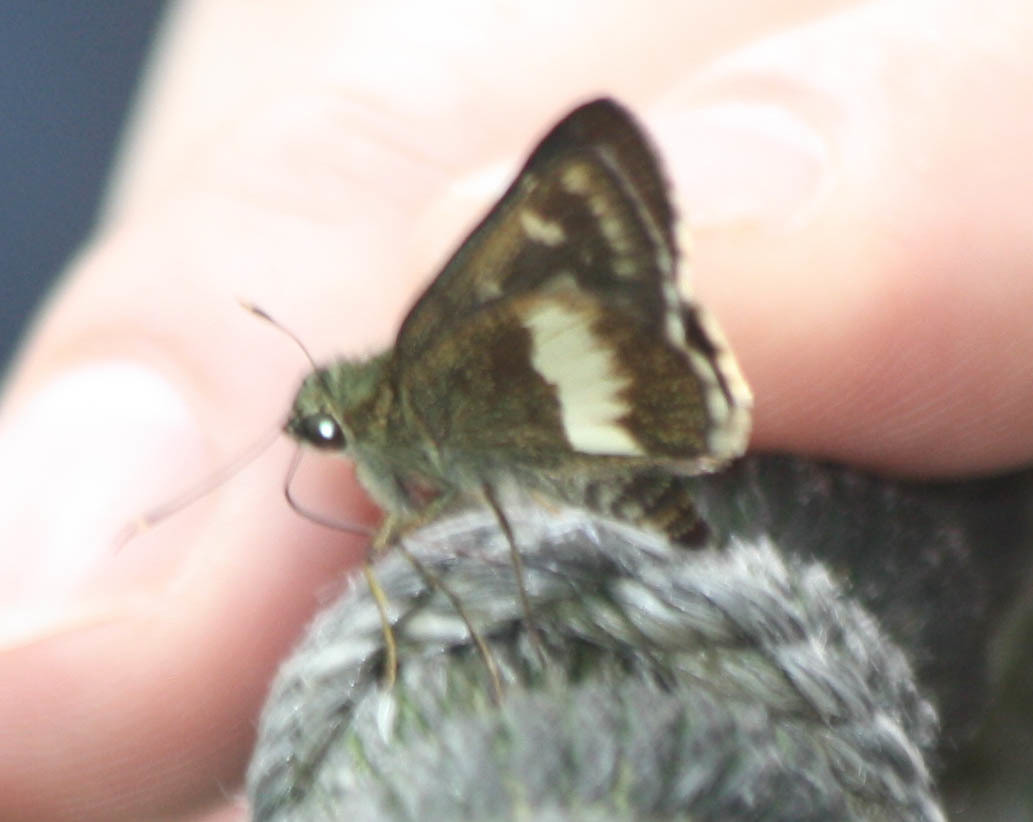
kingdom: Animalia
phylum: Arthropoda
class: Insecta
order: Lepidoptera
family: Hesperiidae
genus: Halpe
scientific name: Halpe zema
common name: Dark banded ace
